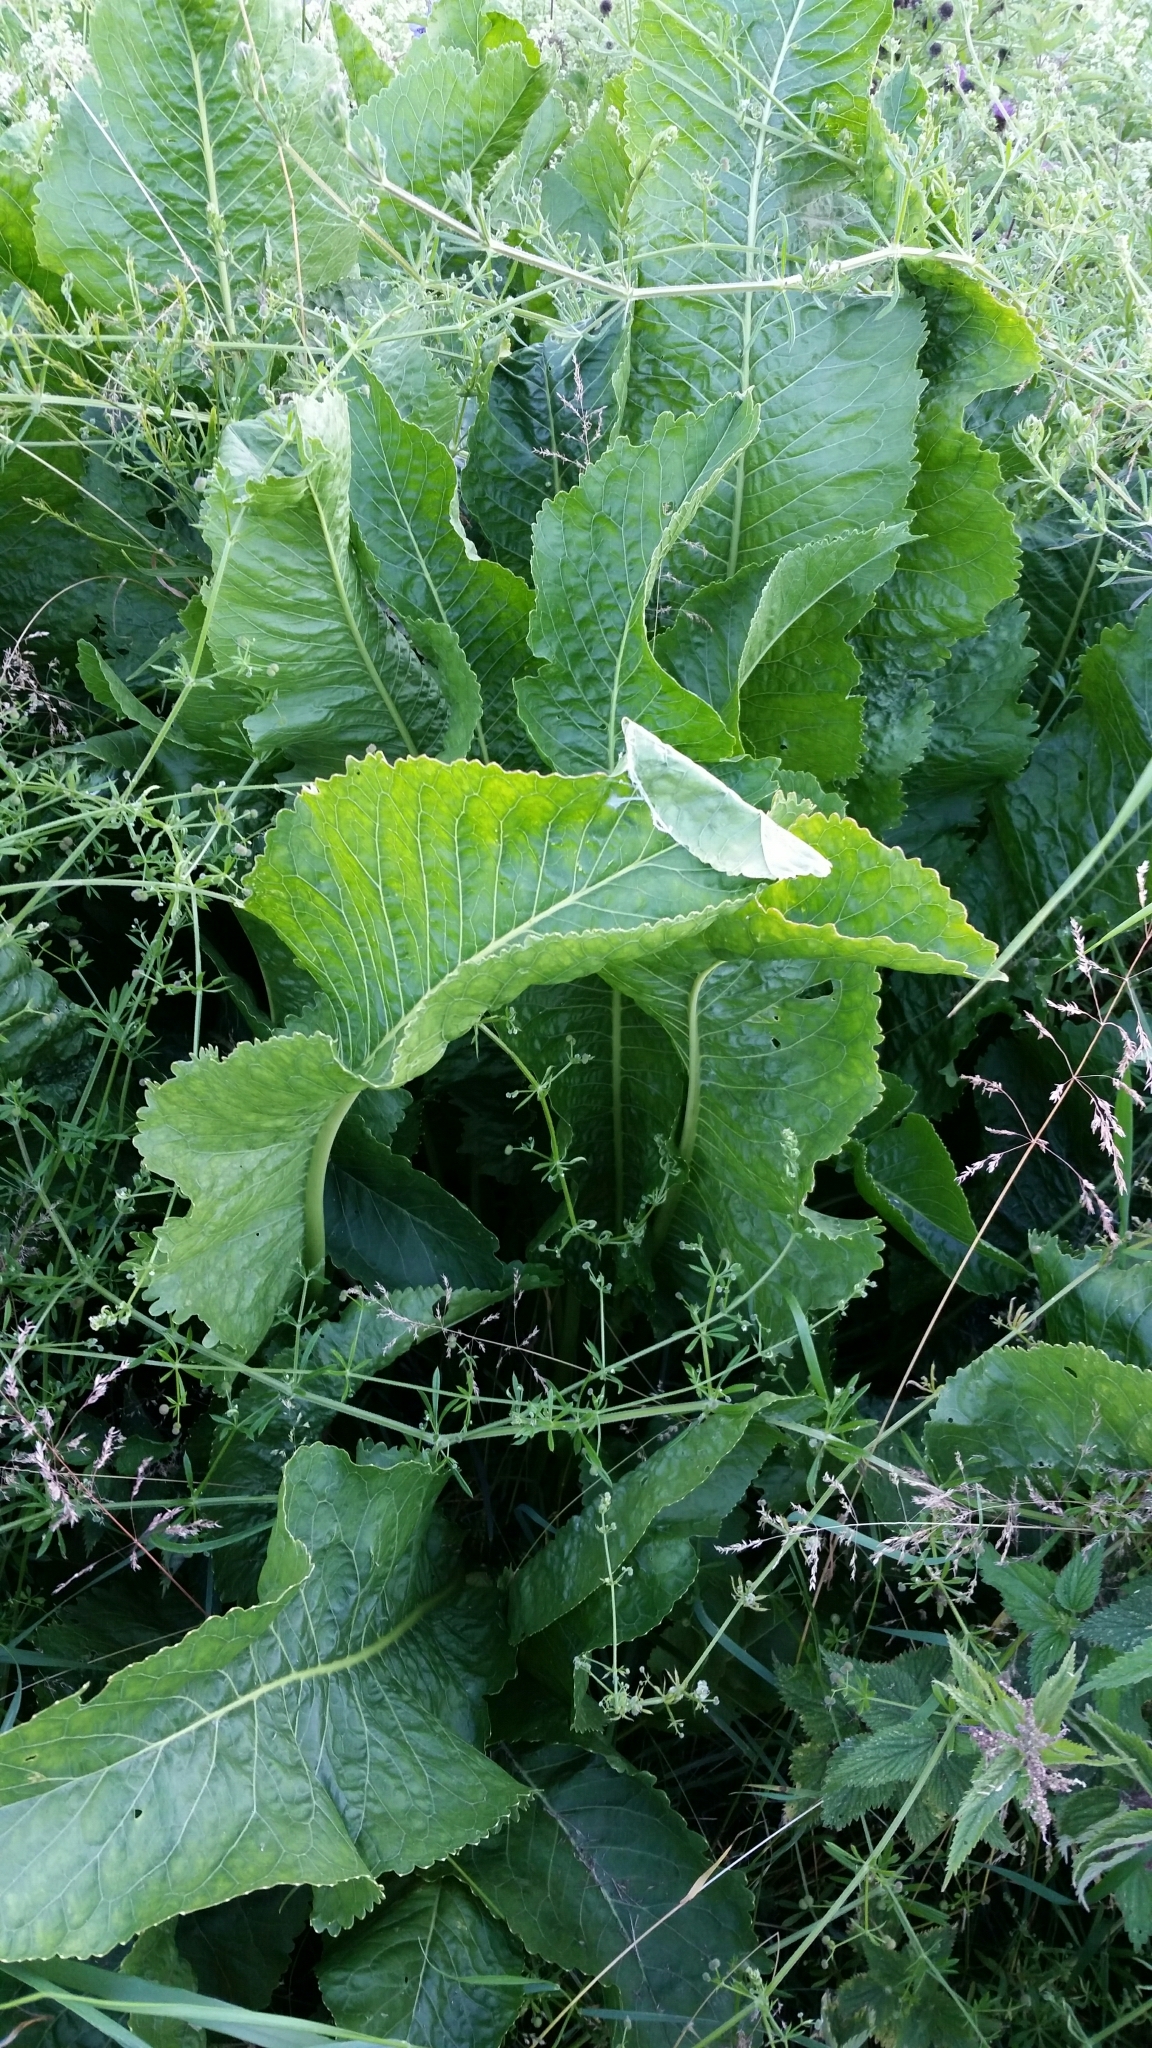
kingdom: Plantae
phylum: Tracheophyta
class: Magnoliopsida
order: Brassicales
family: Brassicaceae
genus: Armoracia
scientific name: Armoracia rusticana
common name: Horseradish
